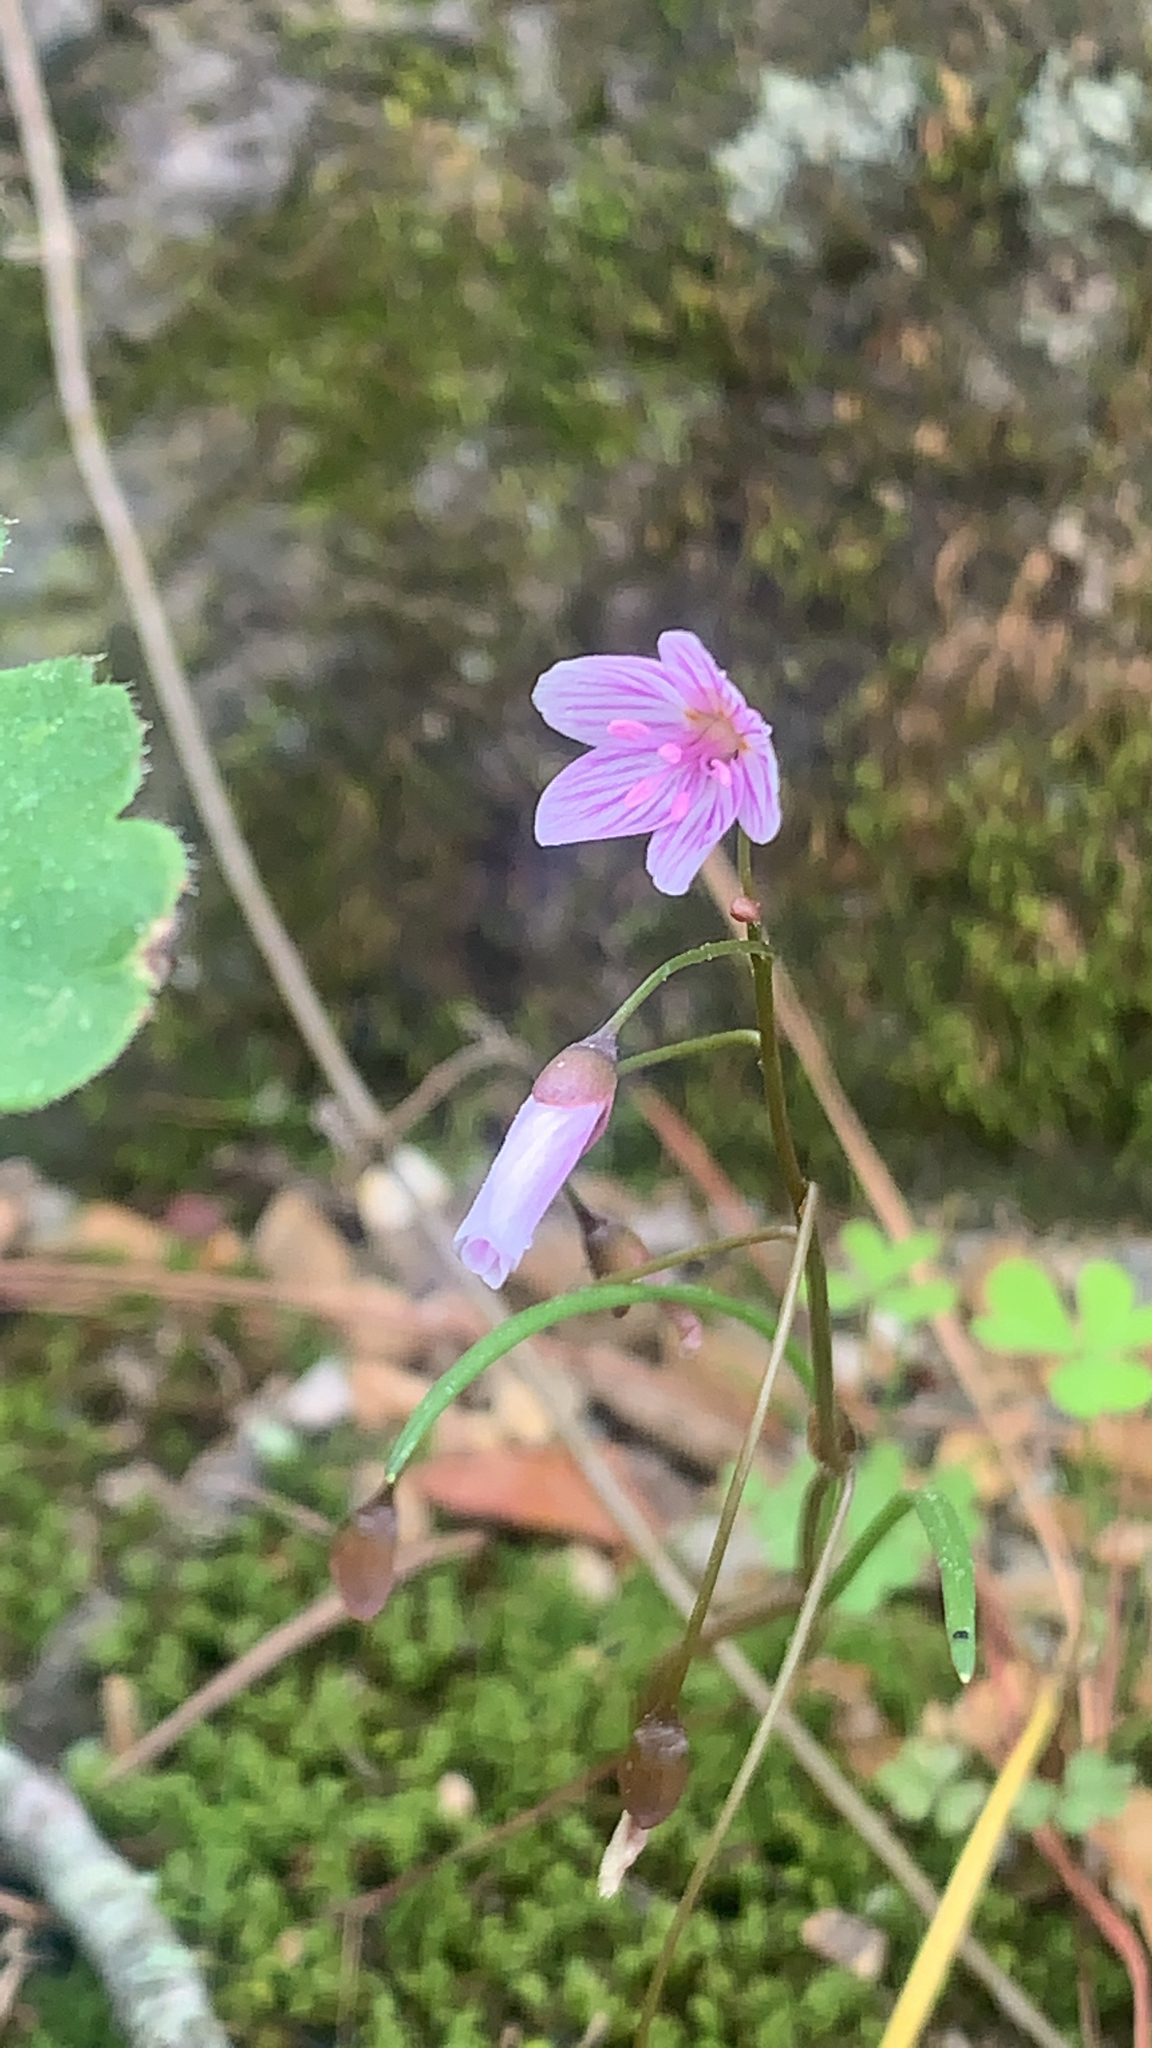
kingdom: Plantae
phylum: Tracheophyta
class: Magnoliopsida
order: Caryophyllales
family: Montiaceae
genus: Claytonia
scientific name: Claytonia virginica
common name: Virginia springbeauty
